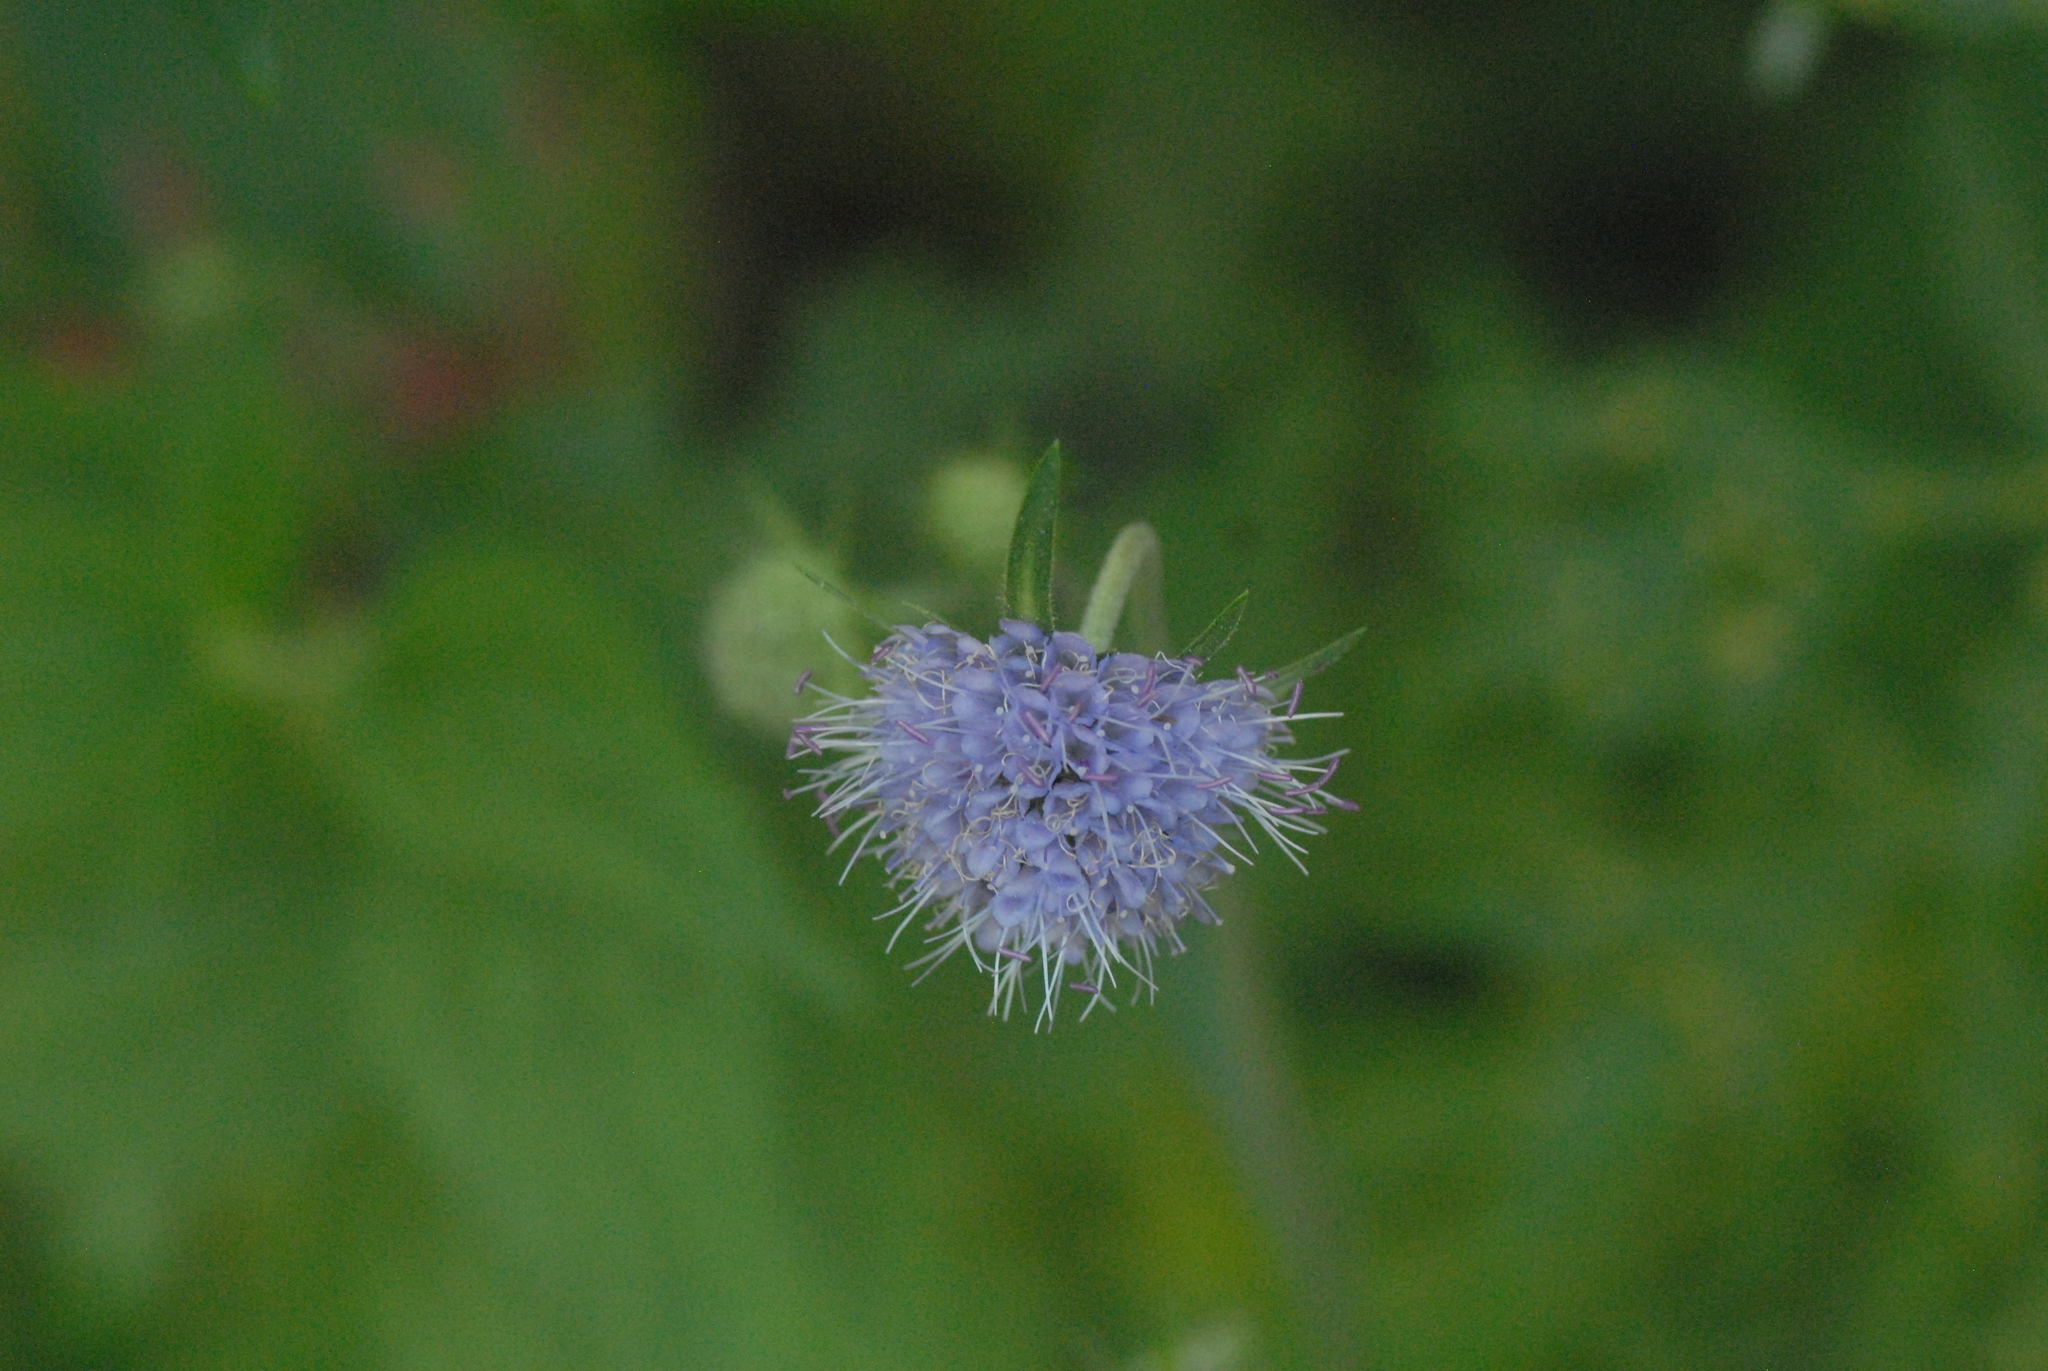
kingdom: Plantae
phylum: Tracheophyta
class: Magnoliopsida
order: Dipsacales
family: Caprifoliaceae
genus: Succisa
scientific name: Succisa pratensis
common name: Devil's-bit
